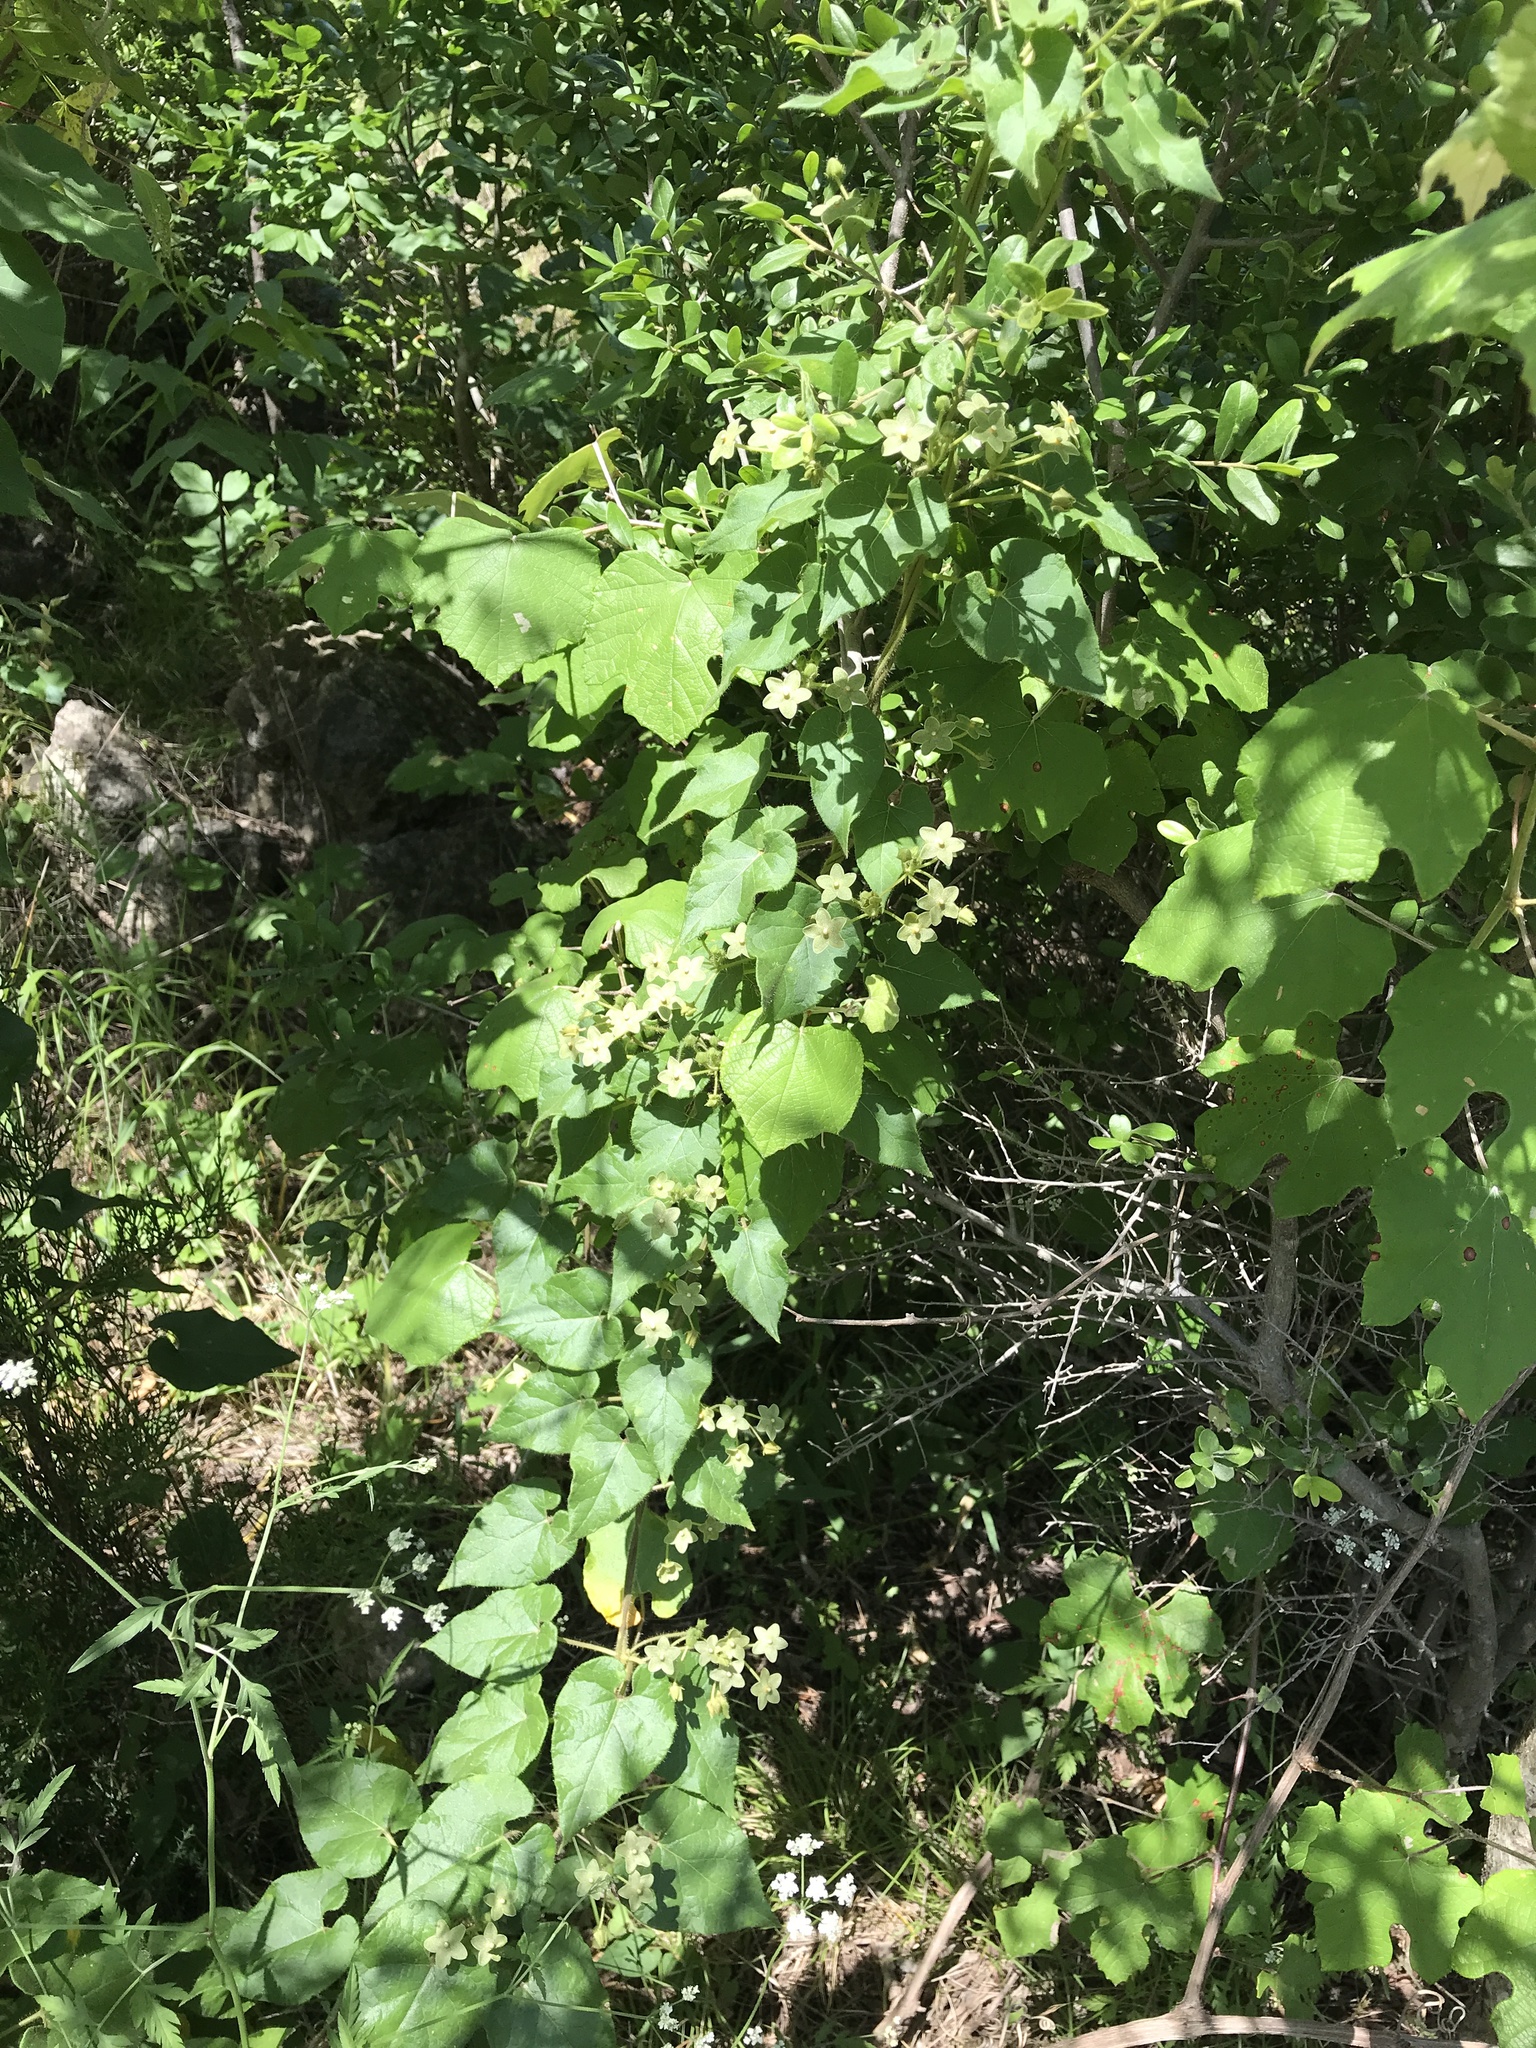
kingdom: Plantae
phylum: Tracheophyta
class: Magnoliopsida
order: Gentianales
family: Apocynaceae
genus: Dictyanthus
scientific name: Dictyanthus reticulatus
